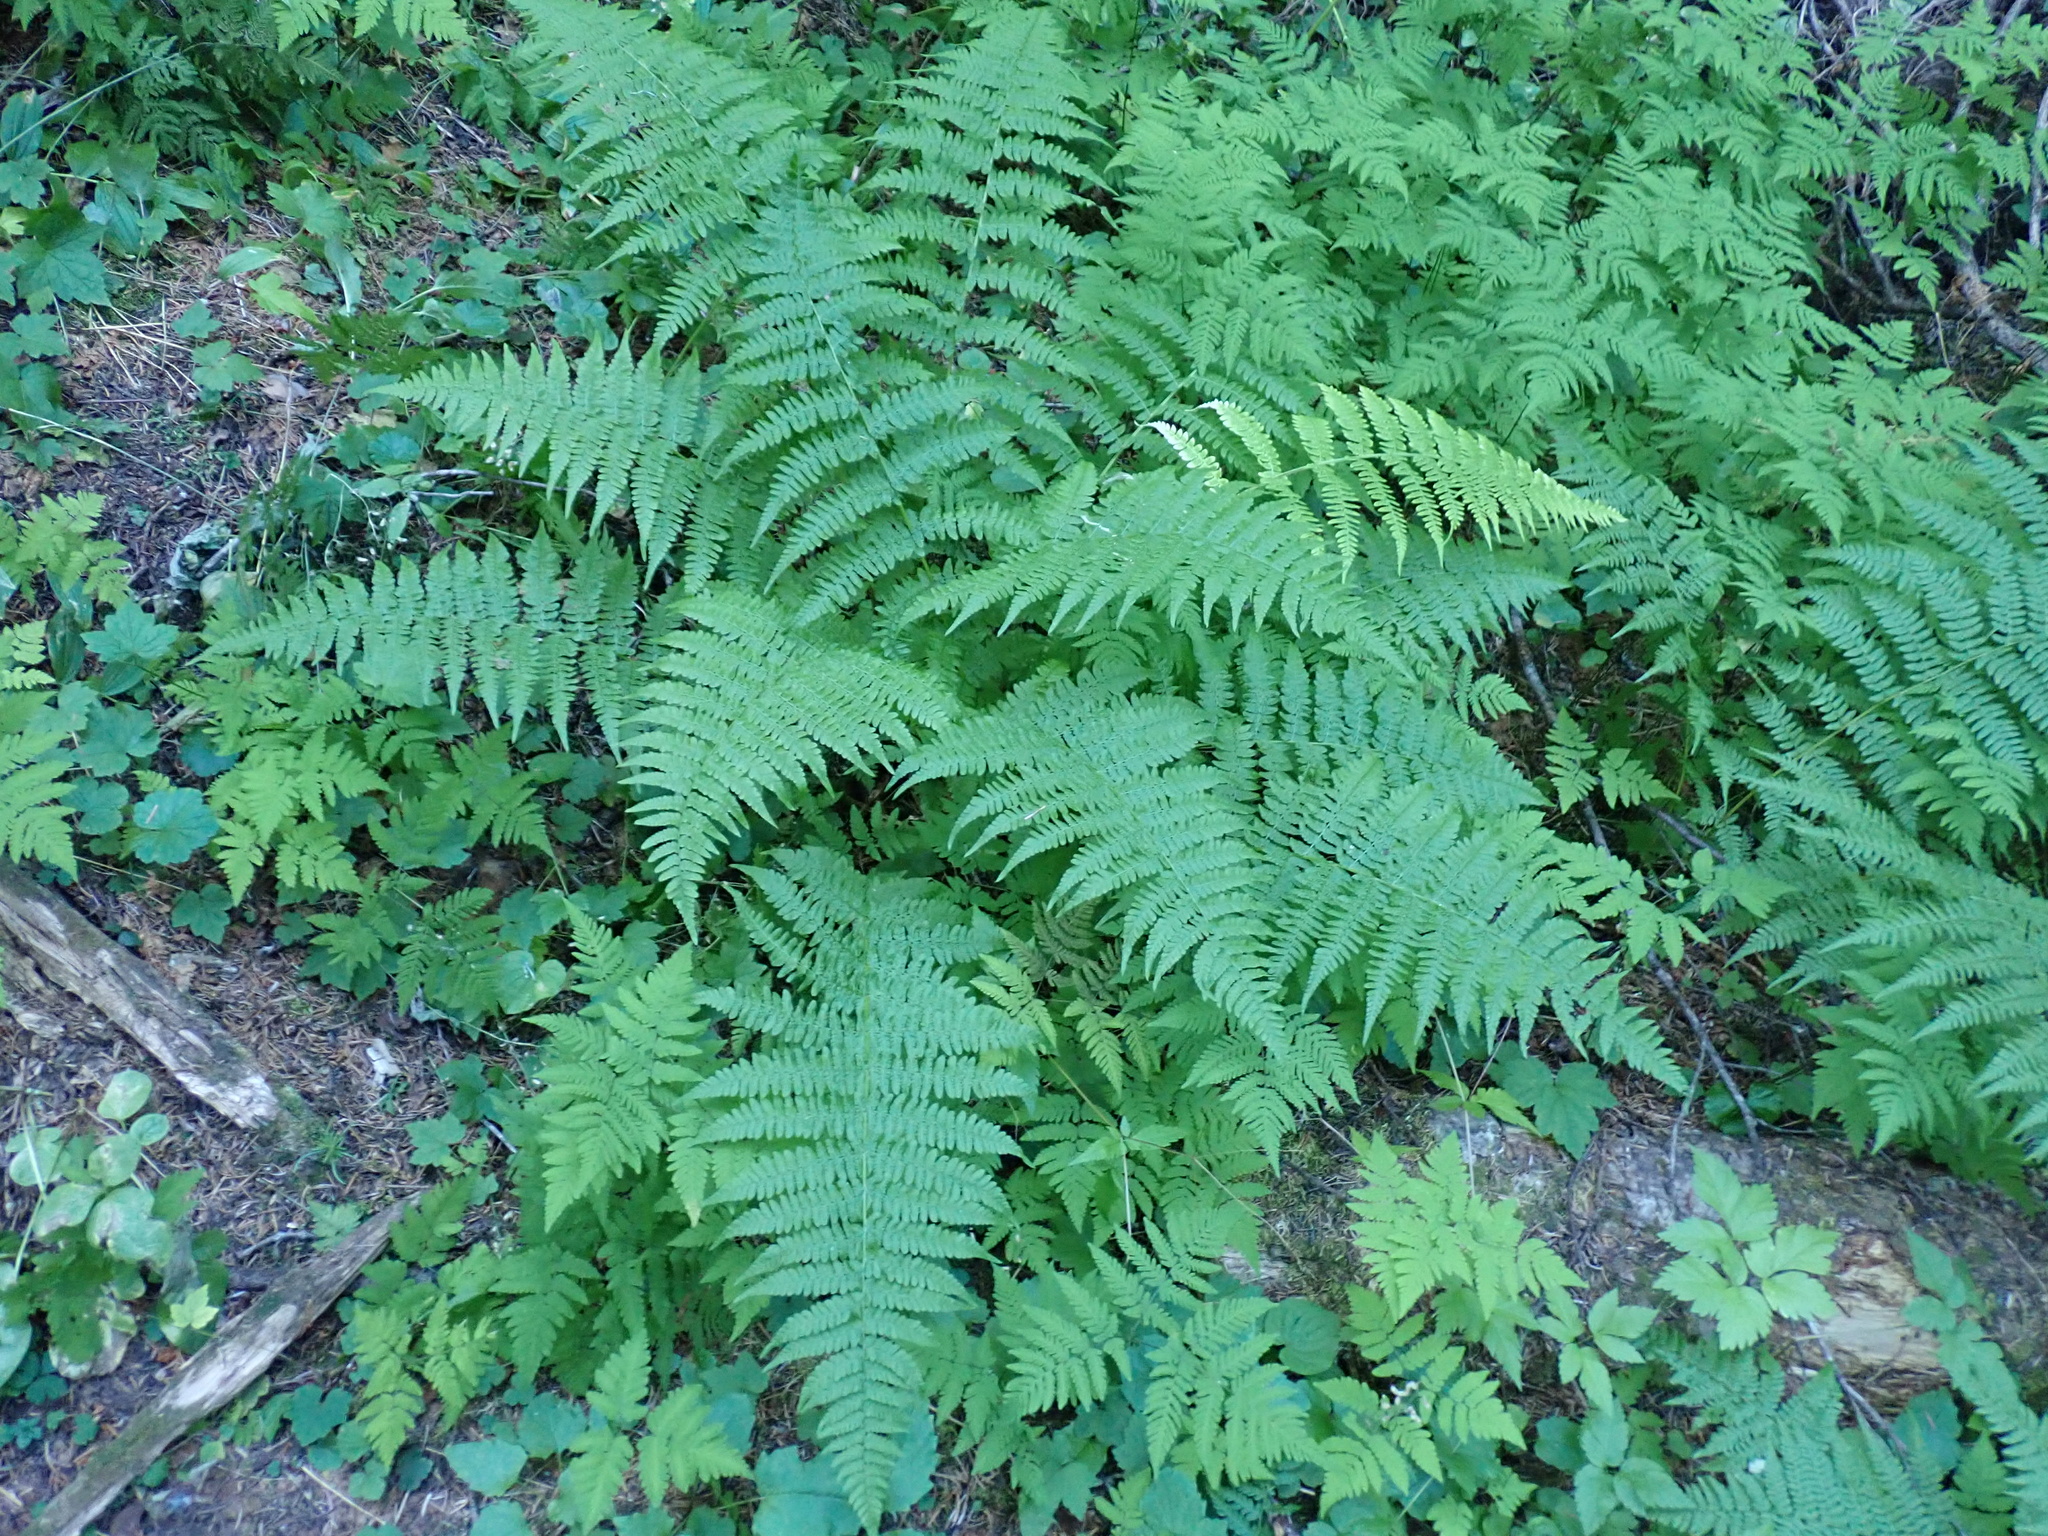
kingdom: Plantae
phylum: Tracheophyta
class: Polypodiopsida
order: Polypodiales
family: Athyriaceae
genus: Athyrium
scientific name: Athyrium filix-femina
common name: Lady fern
